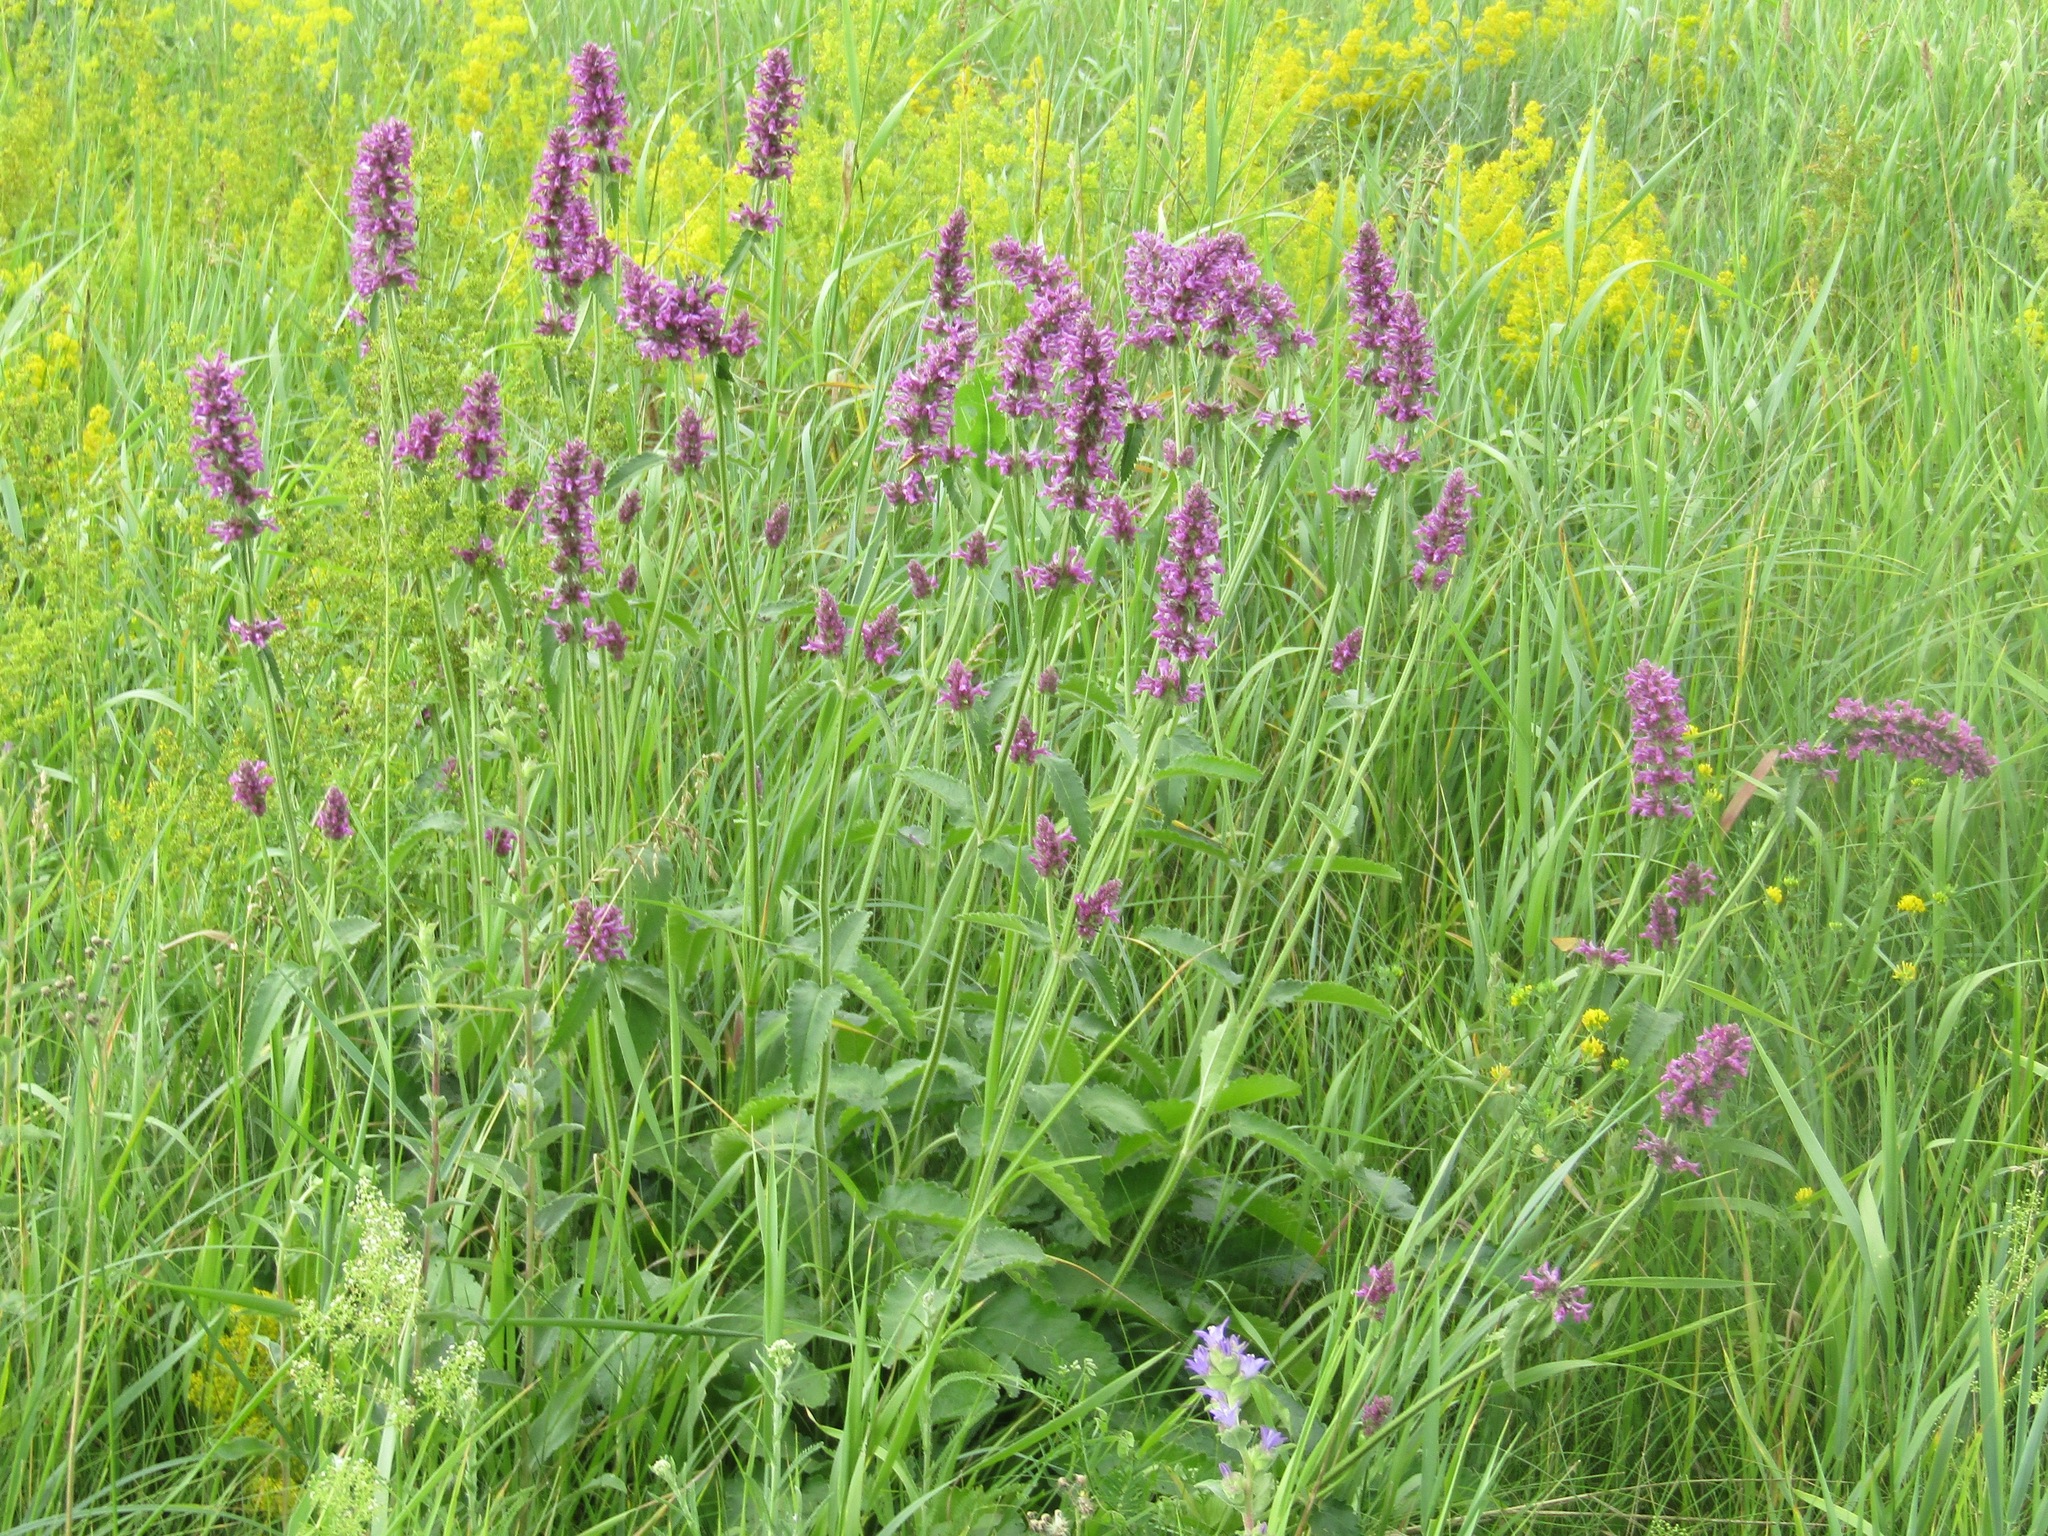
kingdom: Plantae
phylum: Tracheophyta
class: Magnoliopsida
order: Lamiales
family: Lamiaceae
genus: Betonica
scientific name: Betonica officinalis
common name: Bishop's-wort
